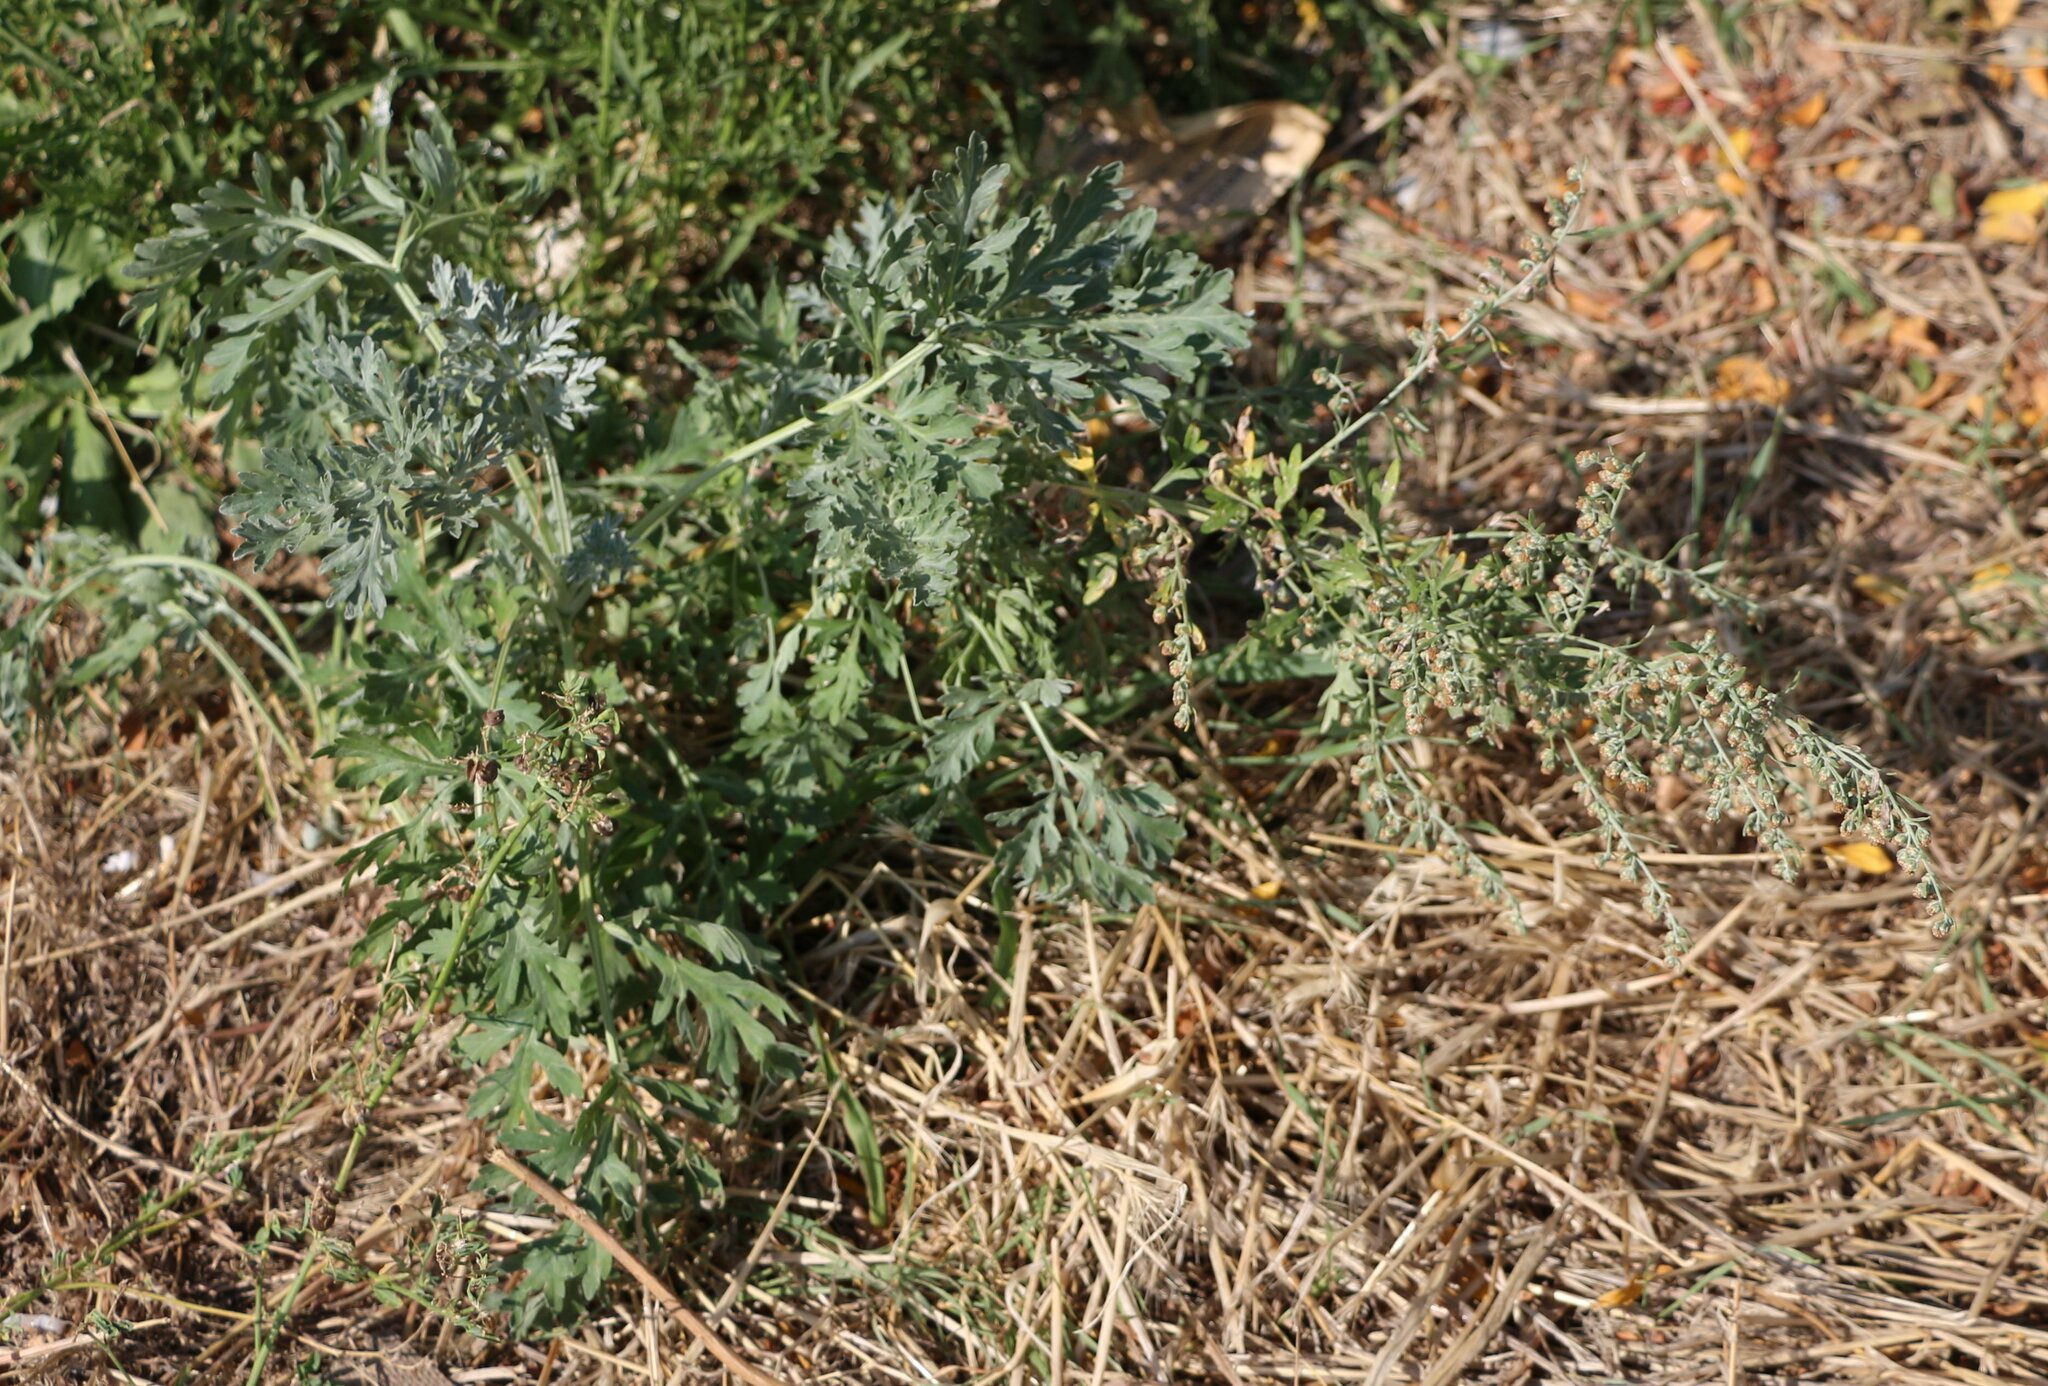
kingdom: Plantae
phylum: Tracheophyta
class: Magnoliopsida
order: Asterales
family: Asteraceae
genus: Artemisia
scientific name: Artemisia absinthium
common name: Wormwood
